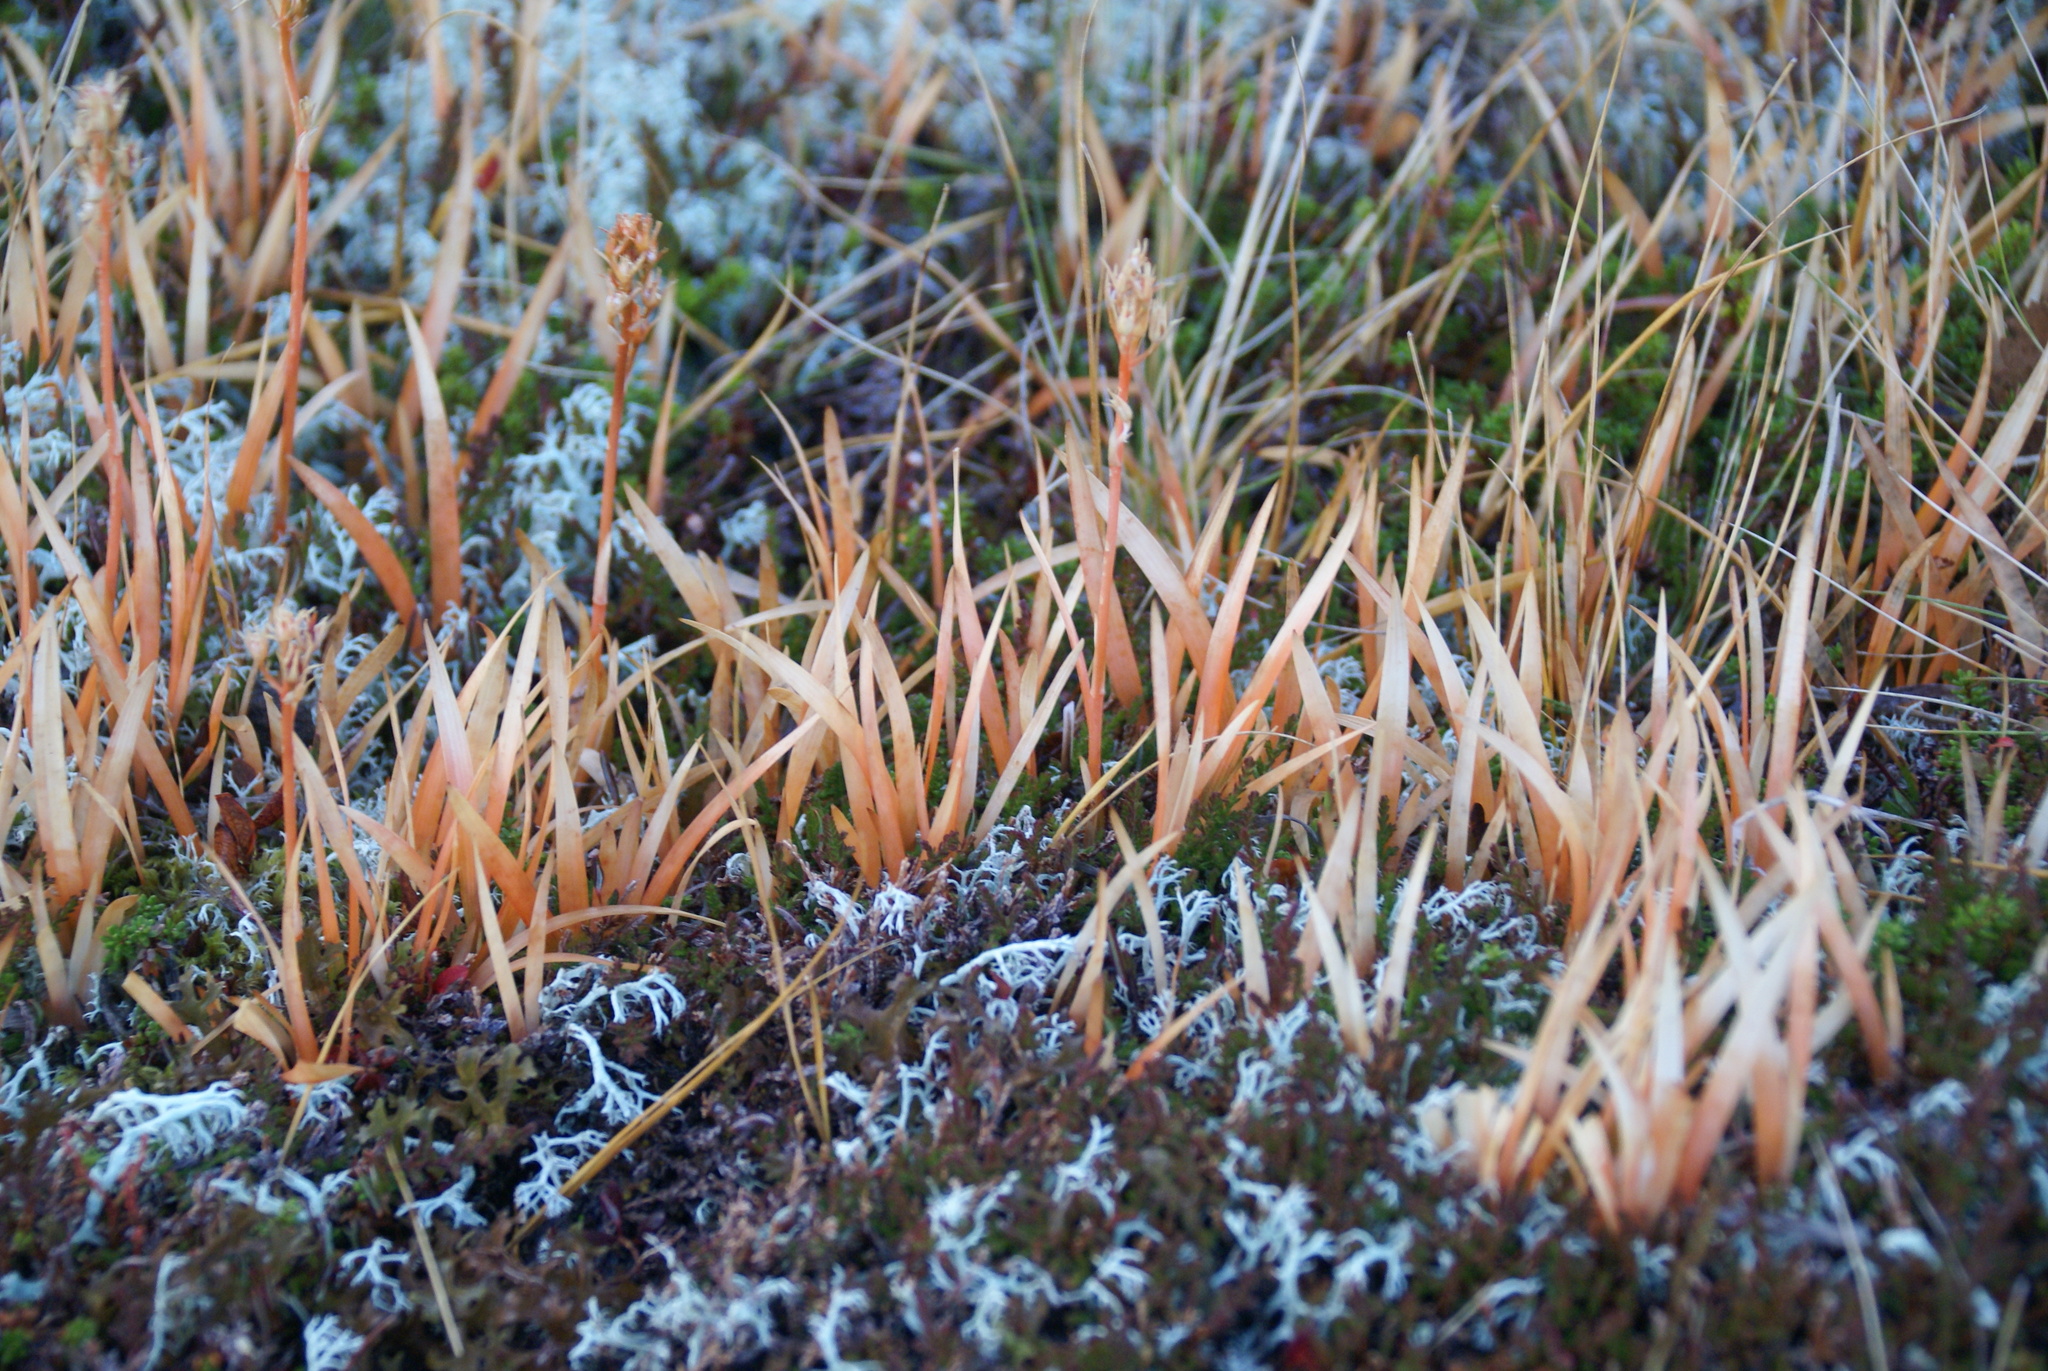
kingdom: Plantae
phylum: Tracheophyta
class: Liliopsida
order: Dioscoreales
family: Nartheciaceae
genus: Narthecium
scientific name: Narthecium ossifragum
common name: Bog asphodel
